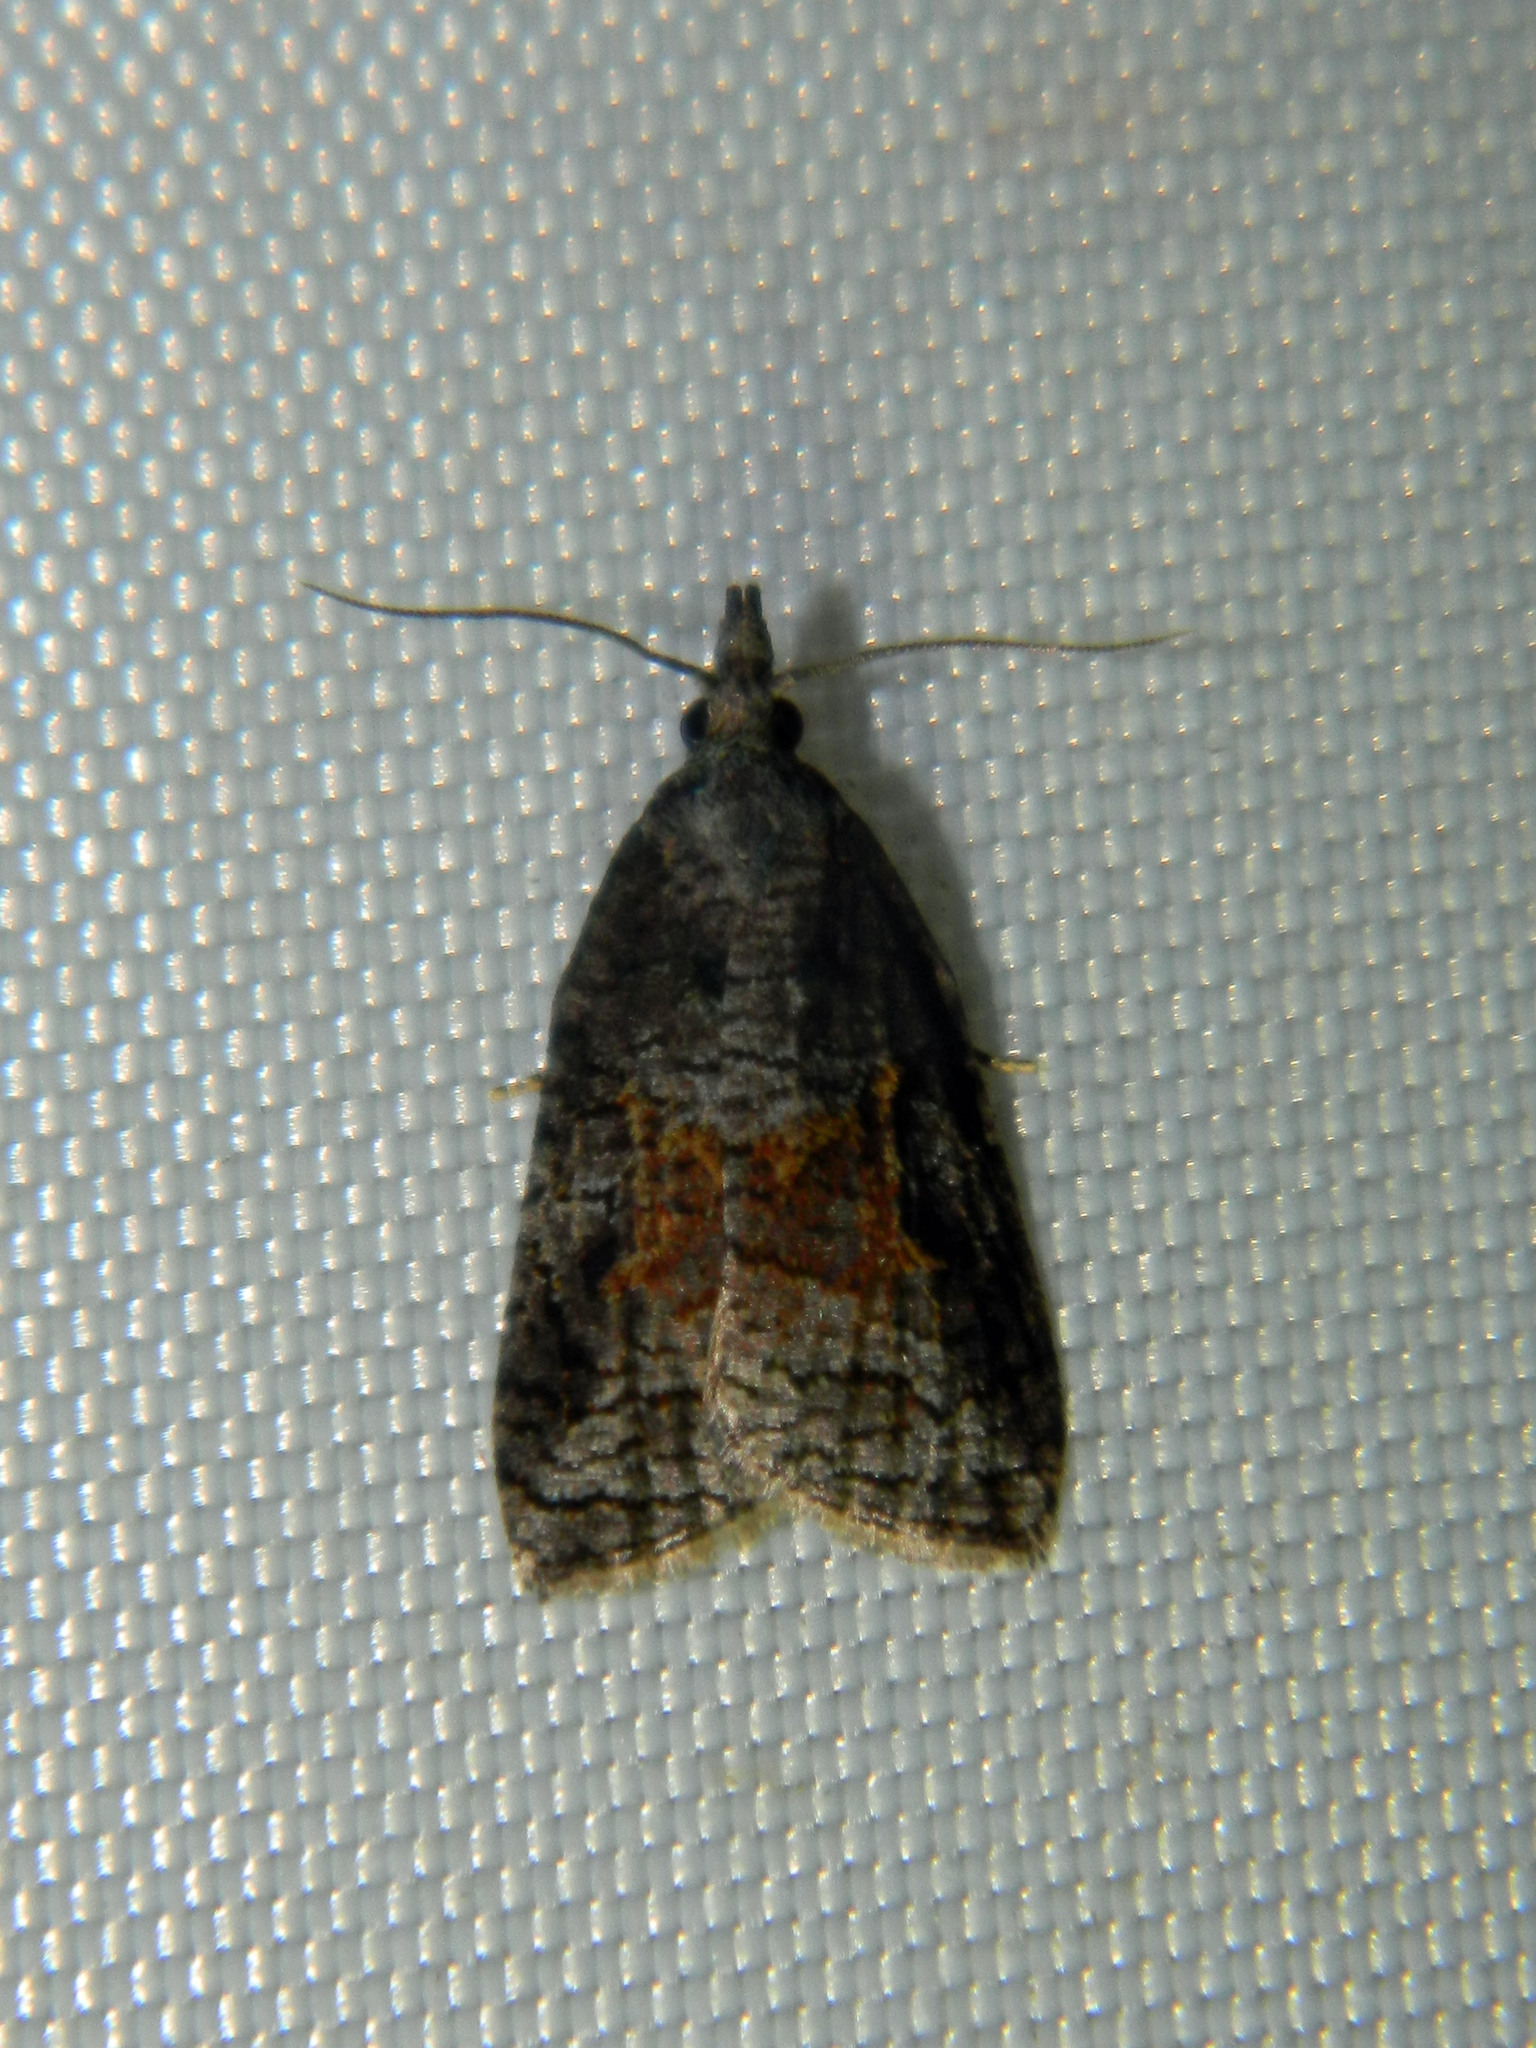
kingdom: Animalia
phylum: Arthropoda
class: Insecta
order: Lepidoptera
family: Tortricidae
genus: Platynota
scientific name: Platynota idaeusalis
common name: Tufted apple bud moth
